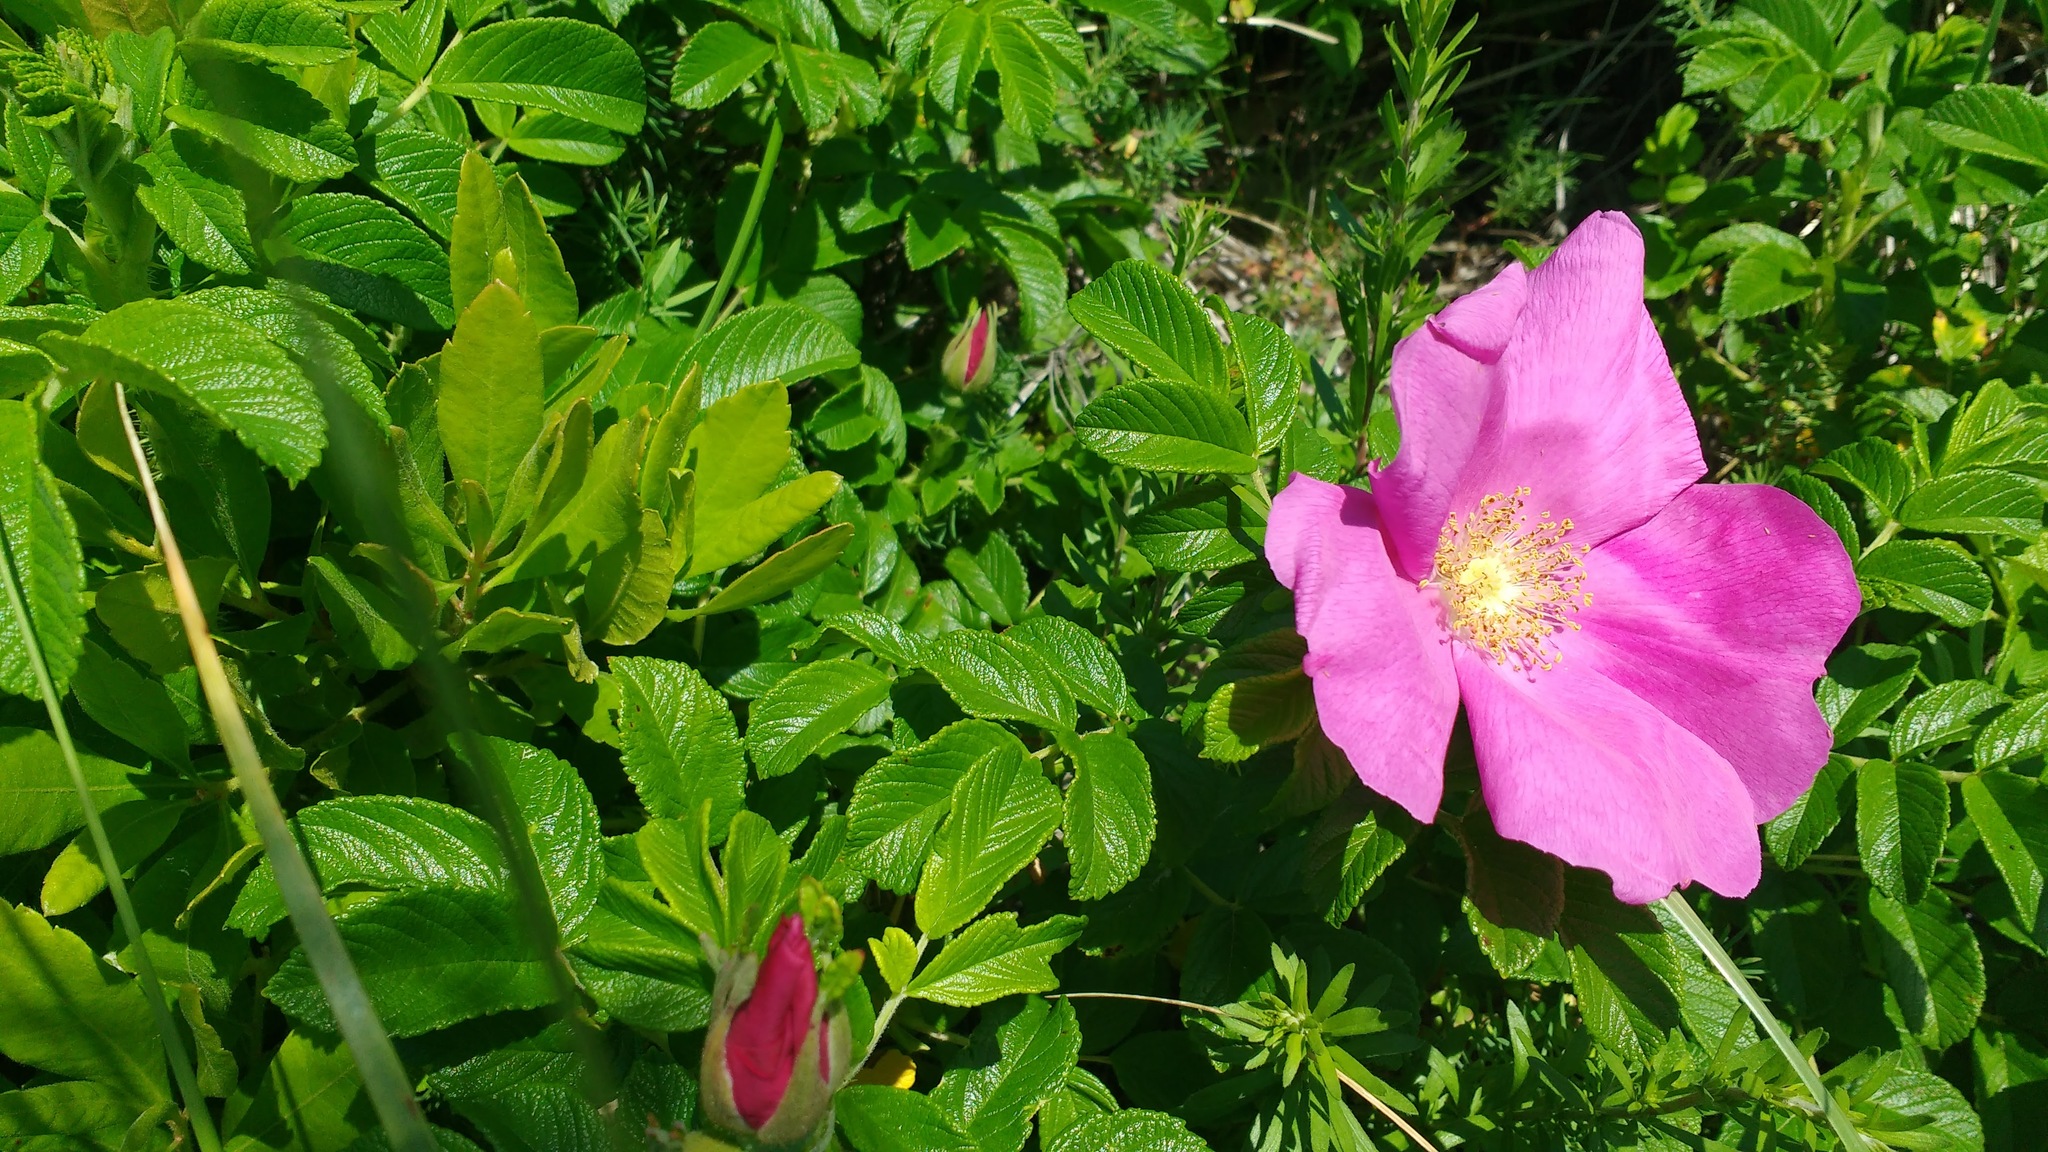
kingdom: Plantae
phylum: Tracheophyta
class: Magnoliopsida
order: Rosales
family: Rosaceae
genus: Rosa
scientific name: Rosa rugosa
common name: Japanese rose
